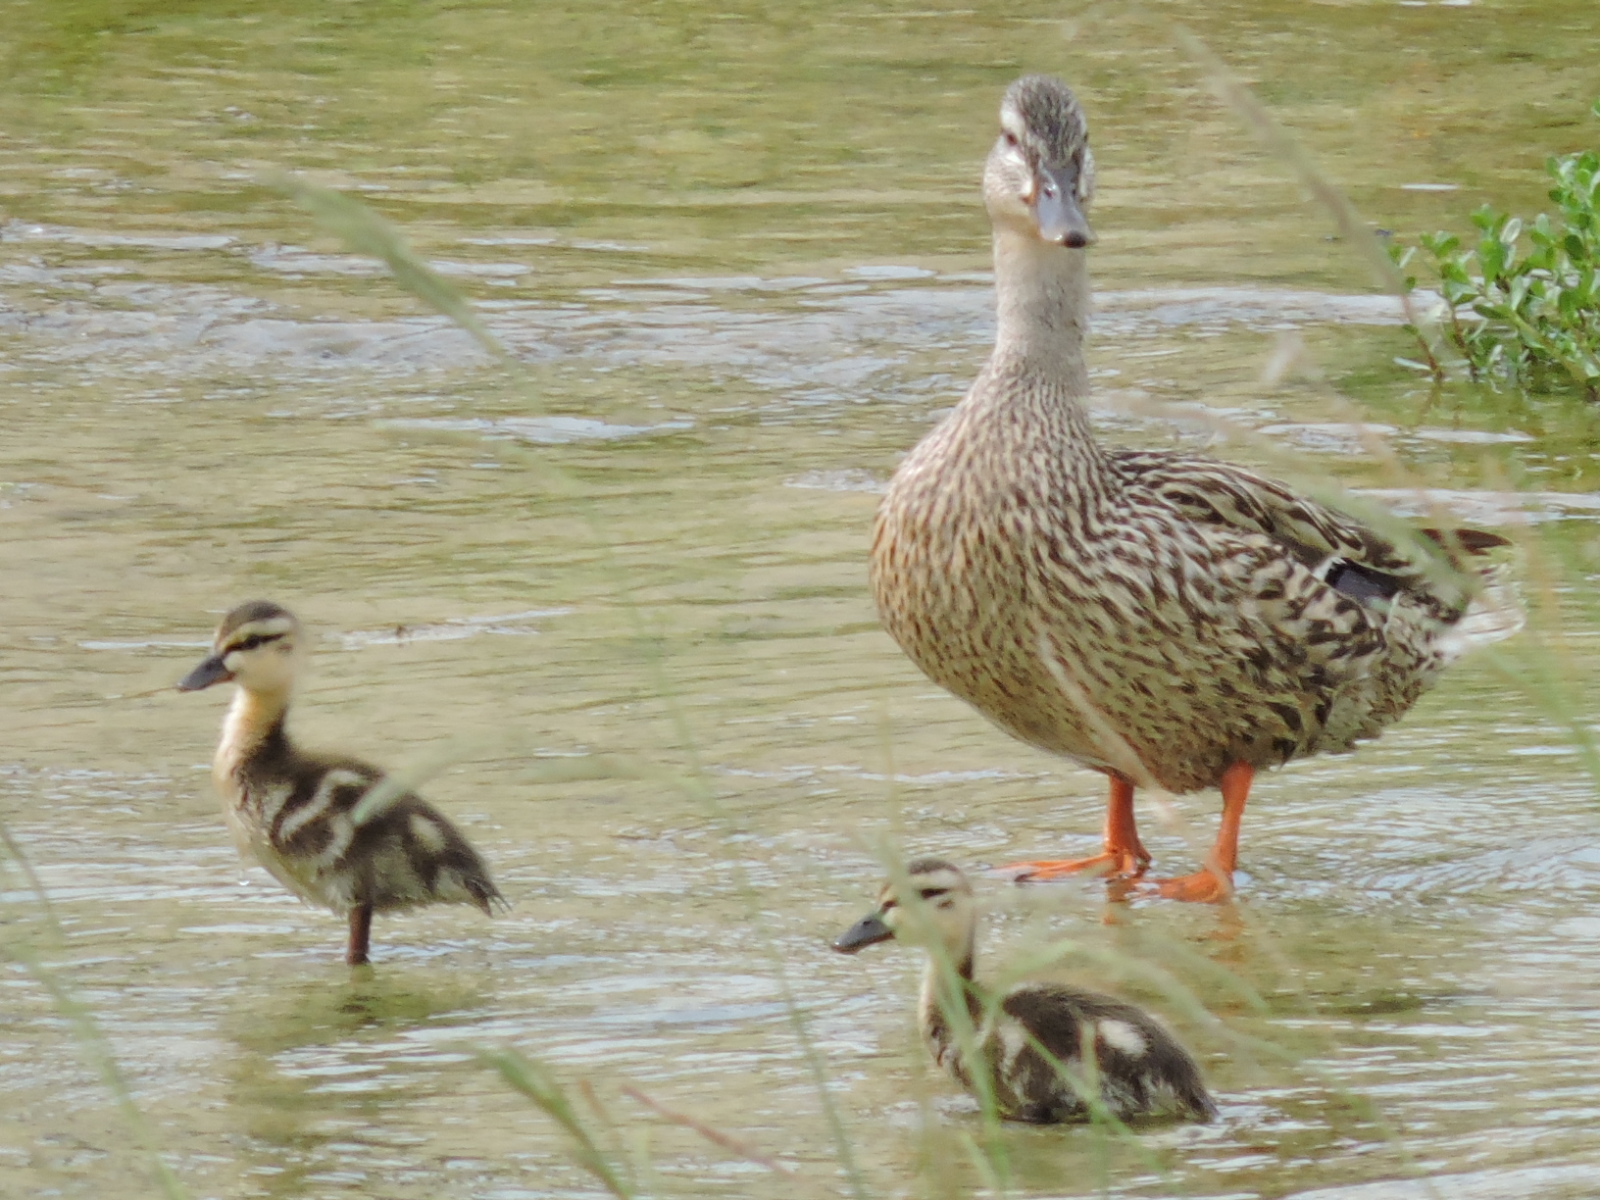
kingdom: Animalia
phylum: Chordata
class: Aves
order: Anseriformes
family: Anatidae
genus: Anas
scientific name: Anas platyrhynchos
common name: Mallard
